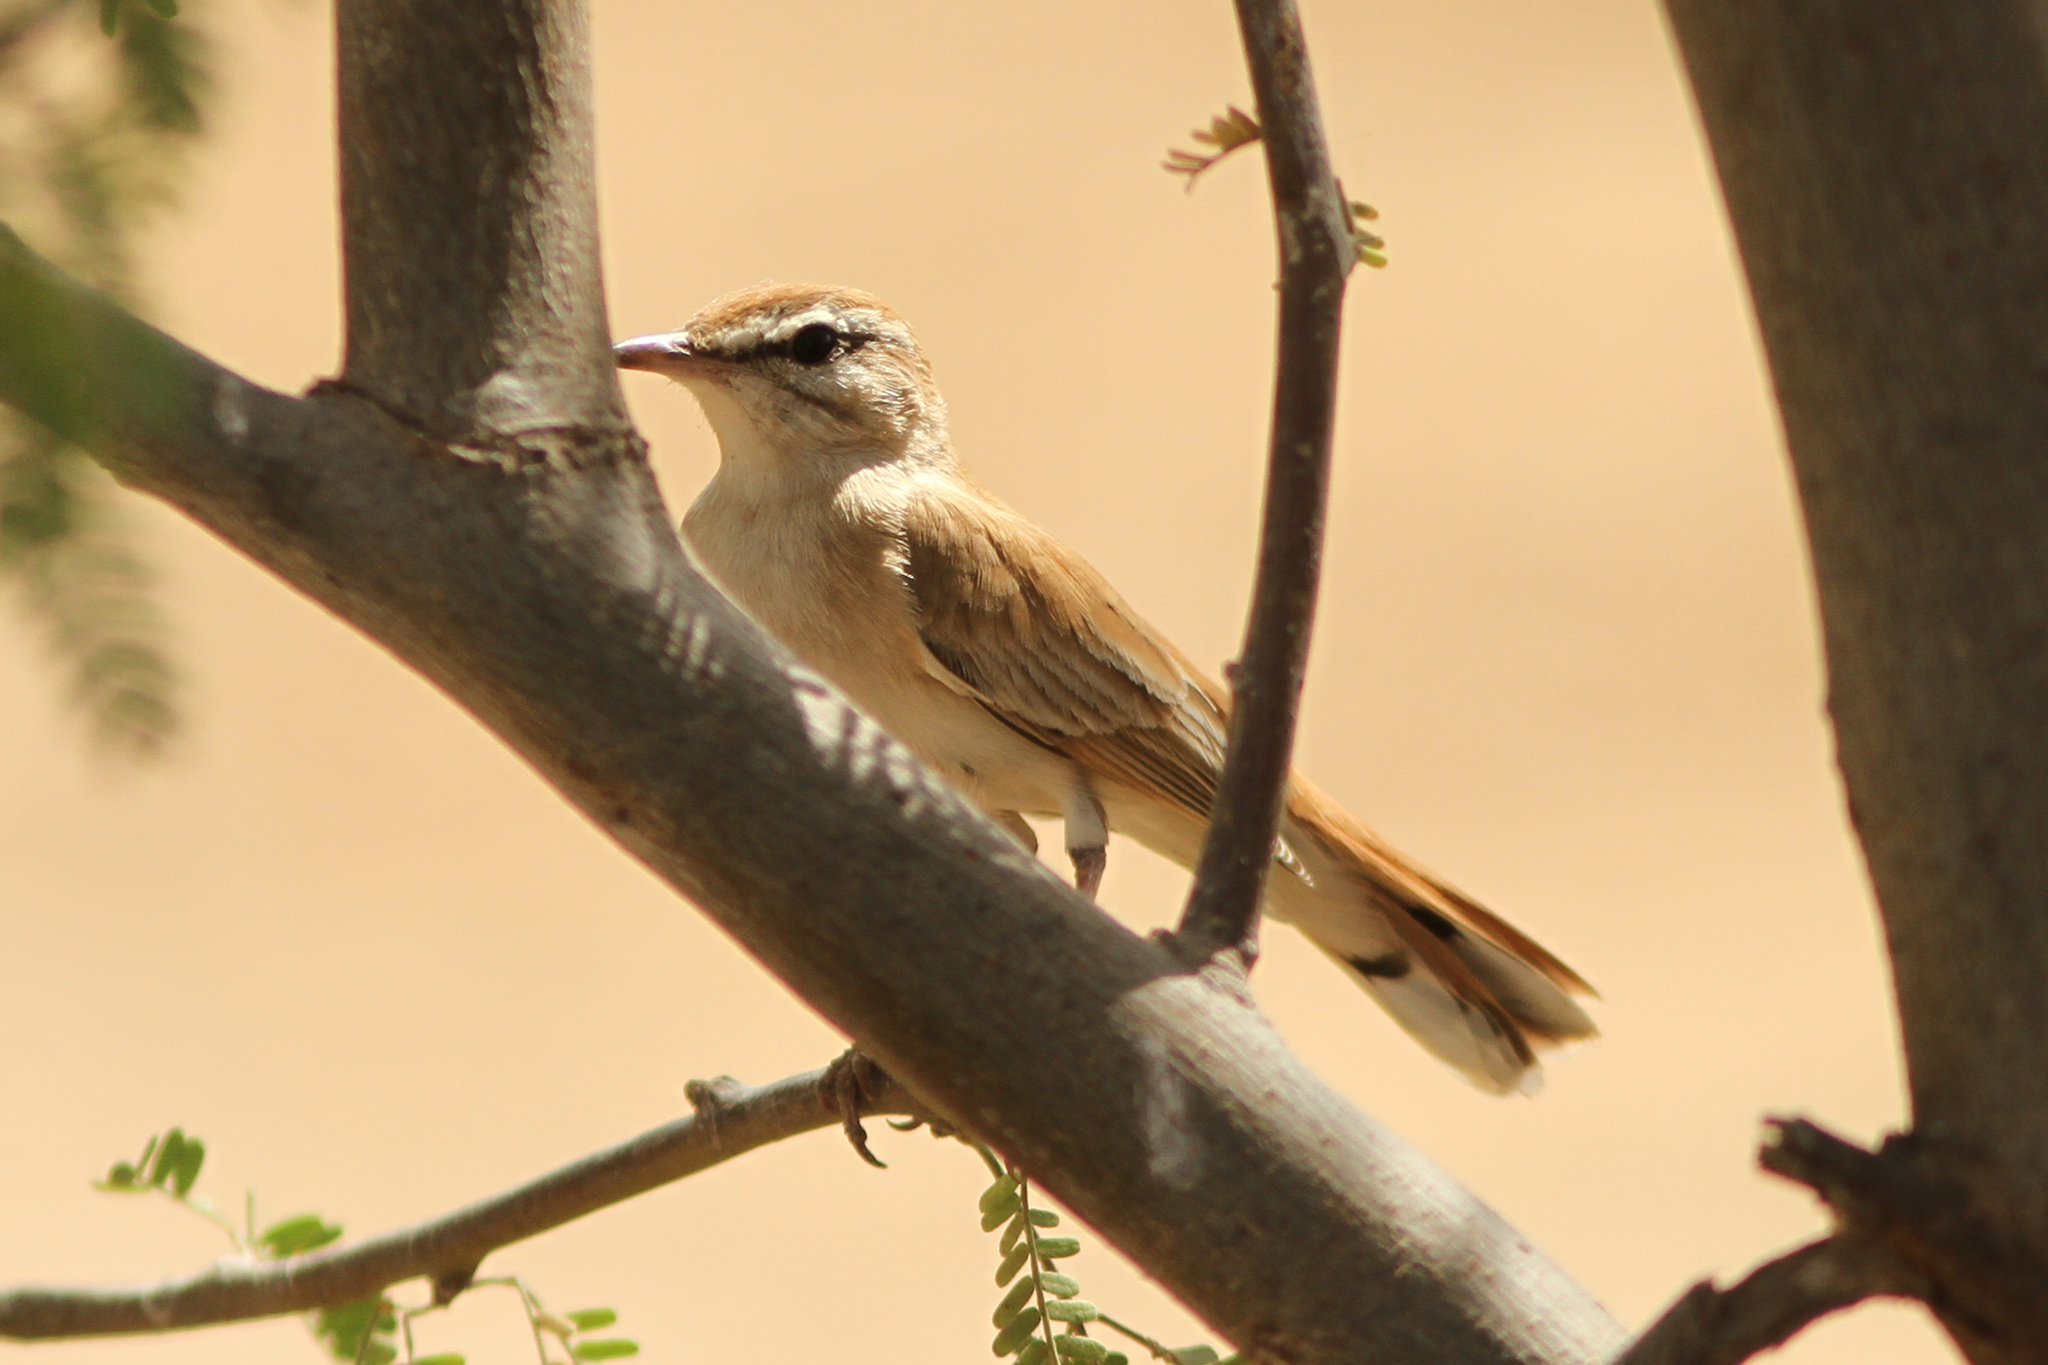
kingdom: Animalia
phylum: Chordata
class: Aves
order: Passeriformes
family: Muscicapidae
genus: Erythropygia
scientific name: Erythropygia galactotes
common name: Rufous-tailed scrub robin
